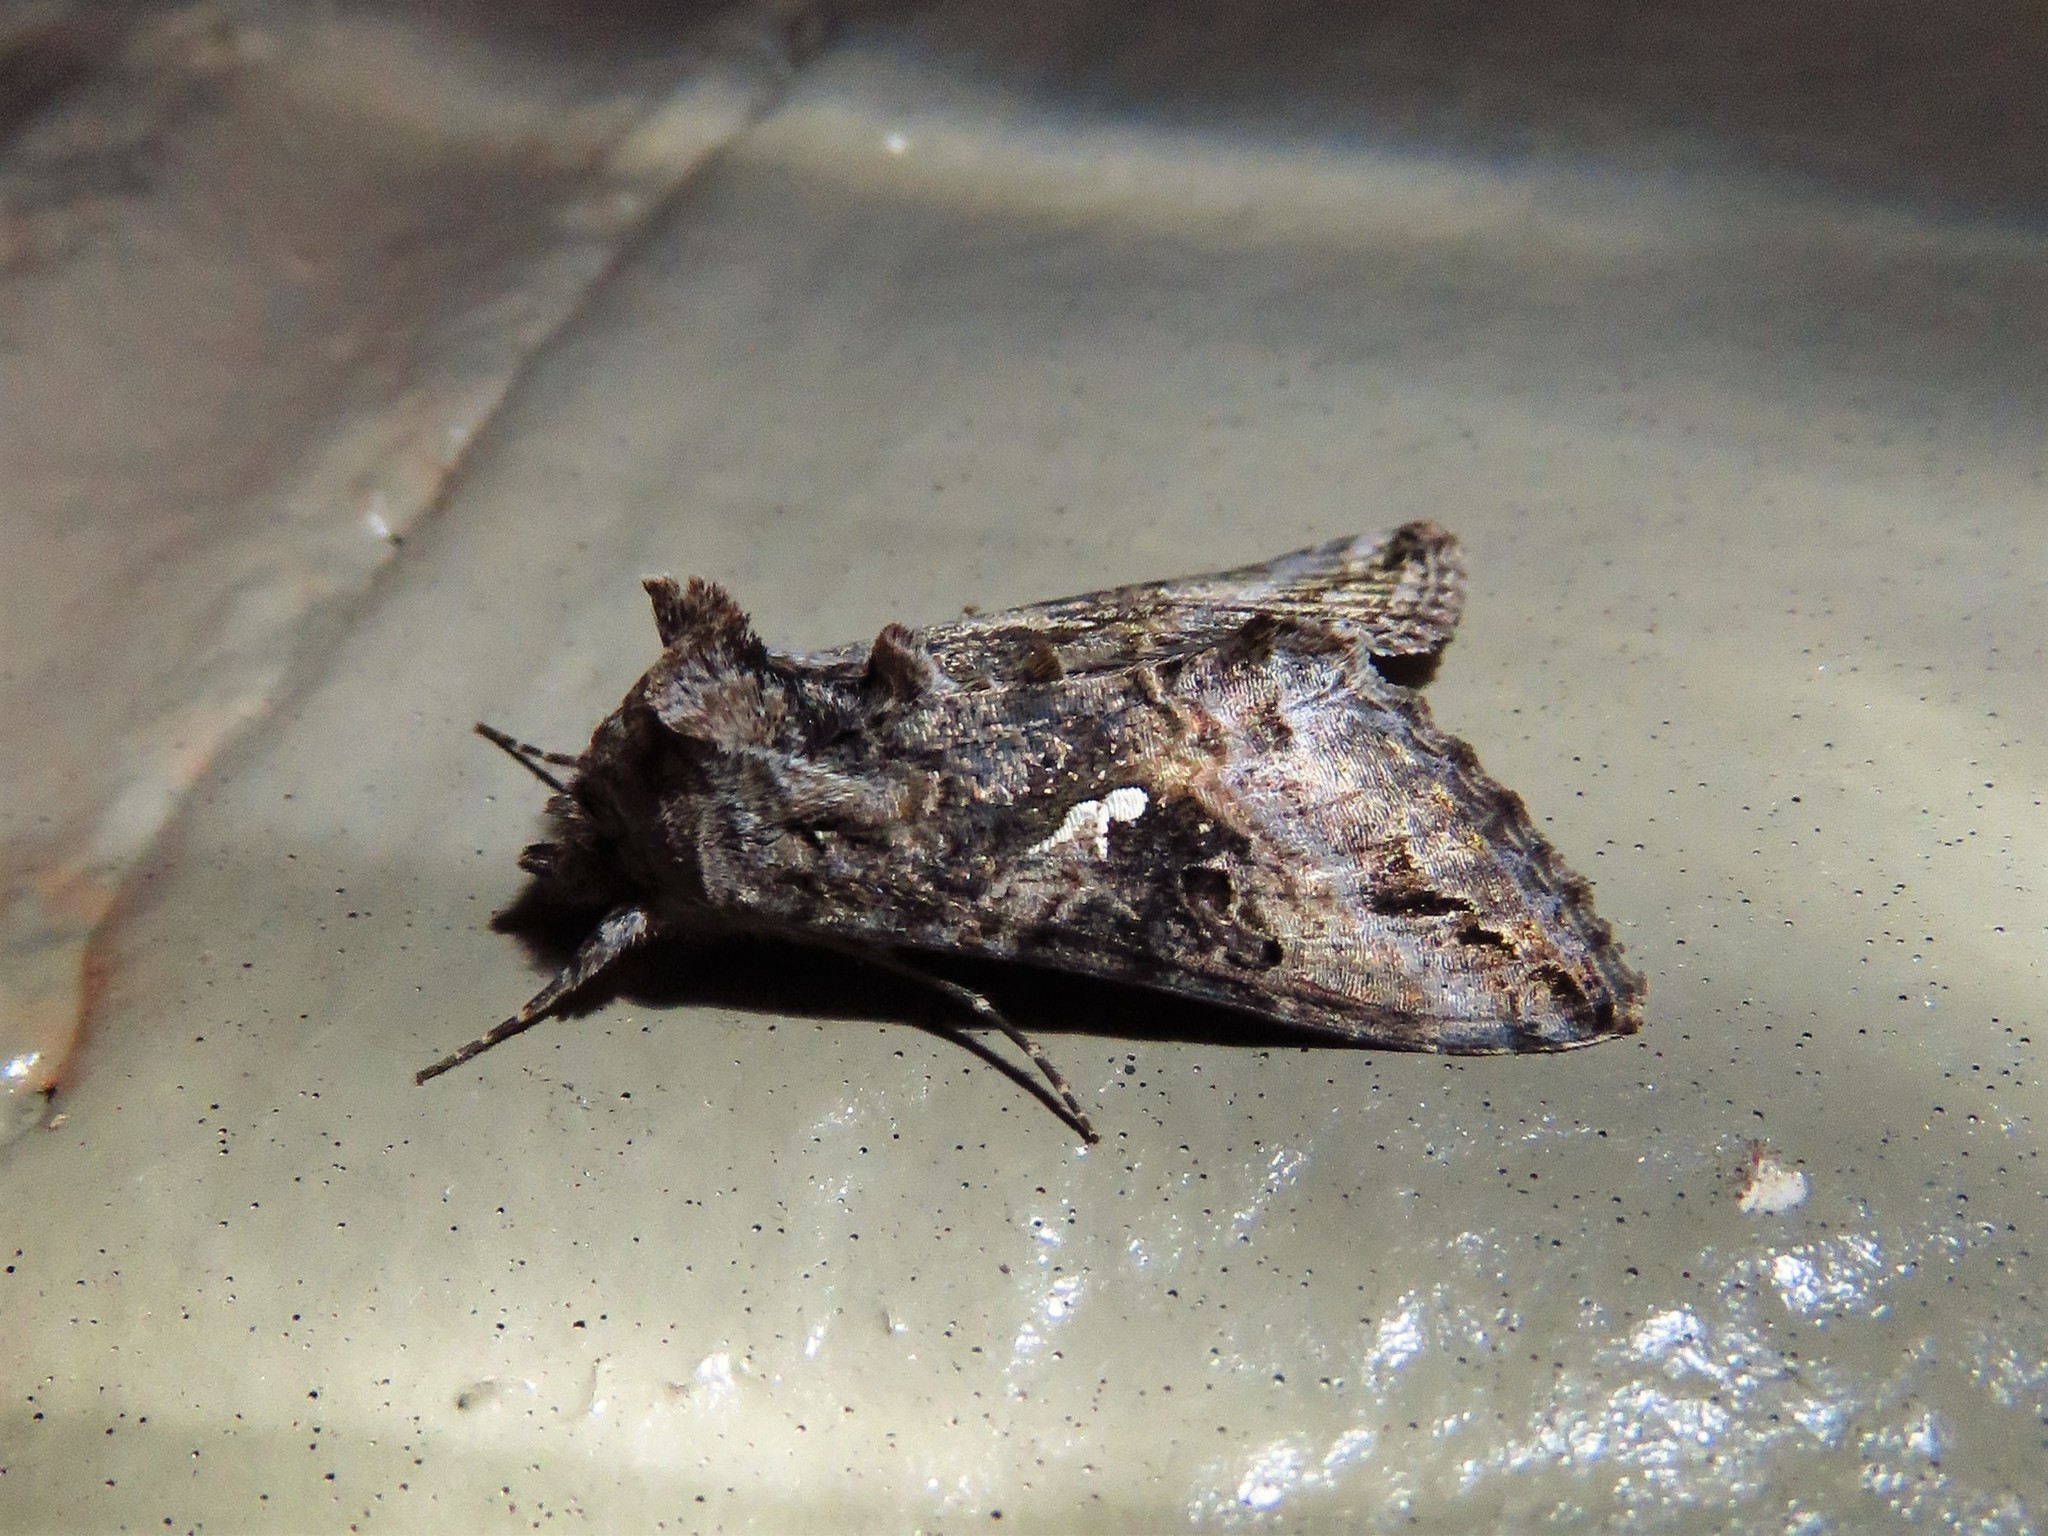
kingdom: Animalia
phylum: Arthropoda
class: Insecta
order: Lepidoptera
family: Noctuidae
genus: Rachiplusia
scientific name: Rachiplusia ou
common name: Gray looper moth
